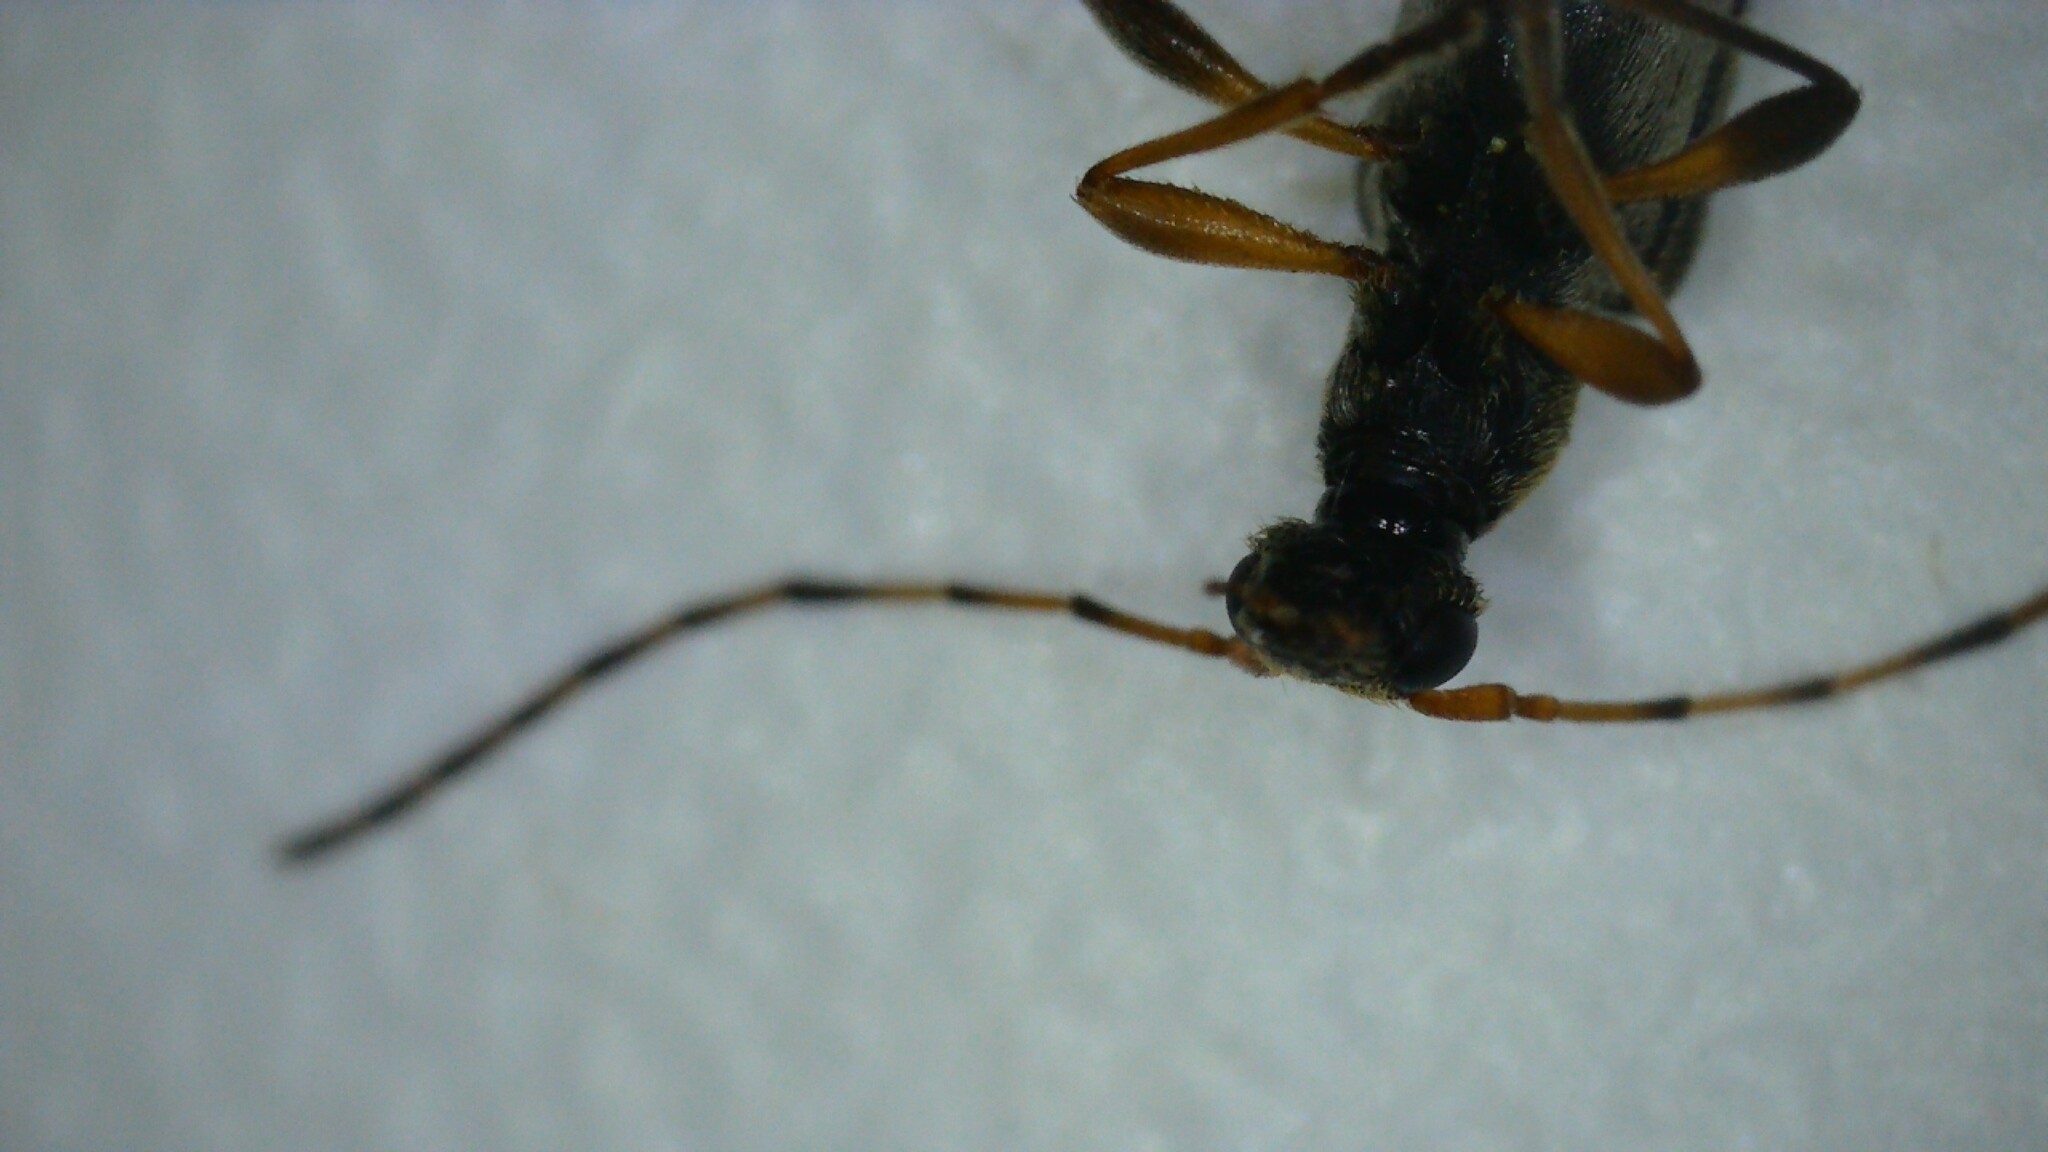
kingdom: Animalia
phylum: Arthropoda
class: Insecta
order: Coleoptera
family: Cerambycidae
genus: Grammoptera
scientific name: Grammoptera ruficornis
